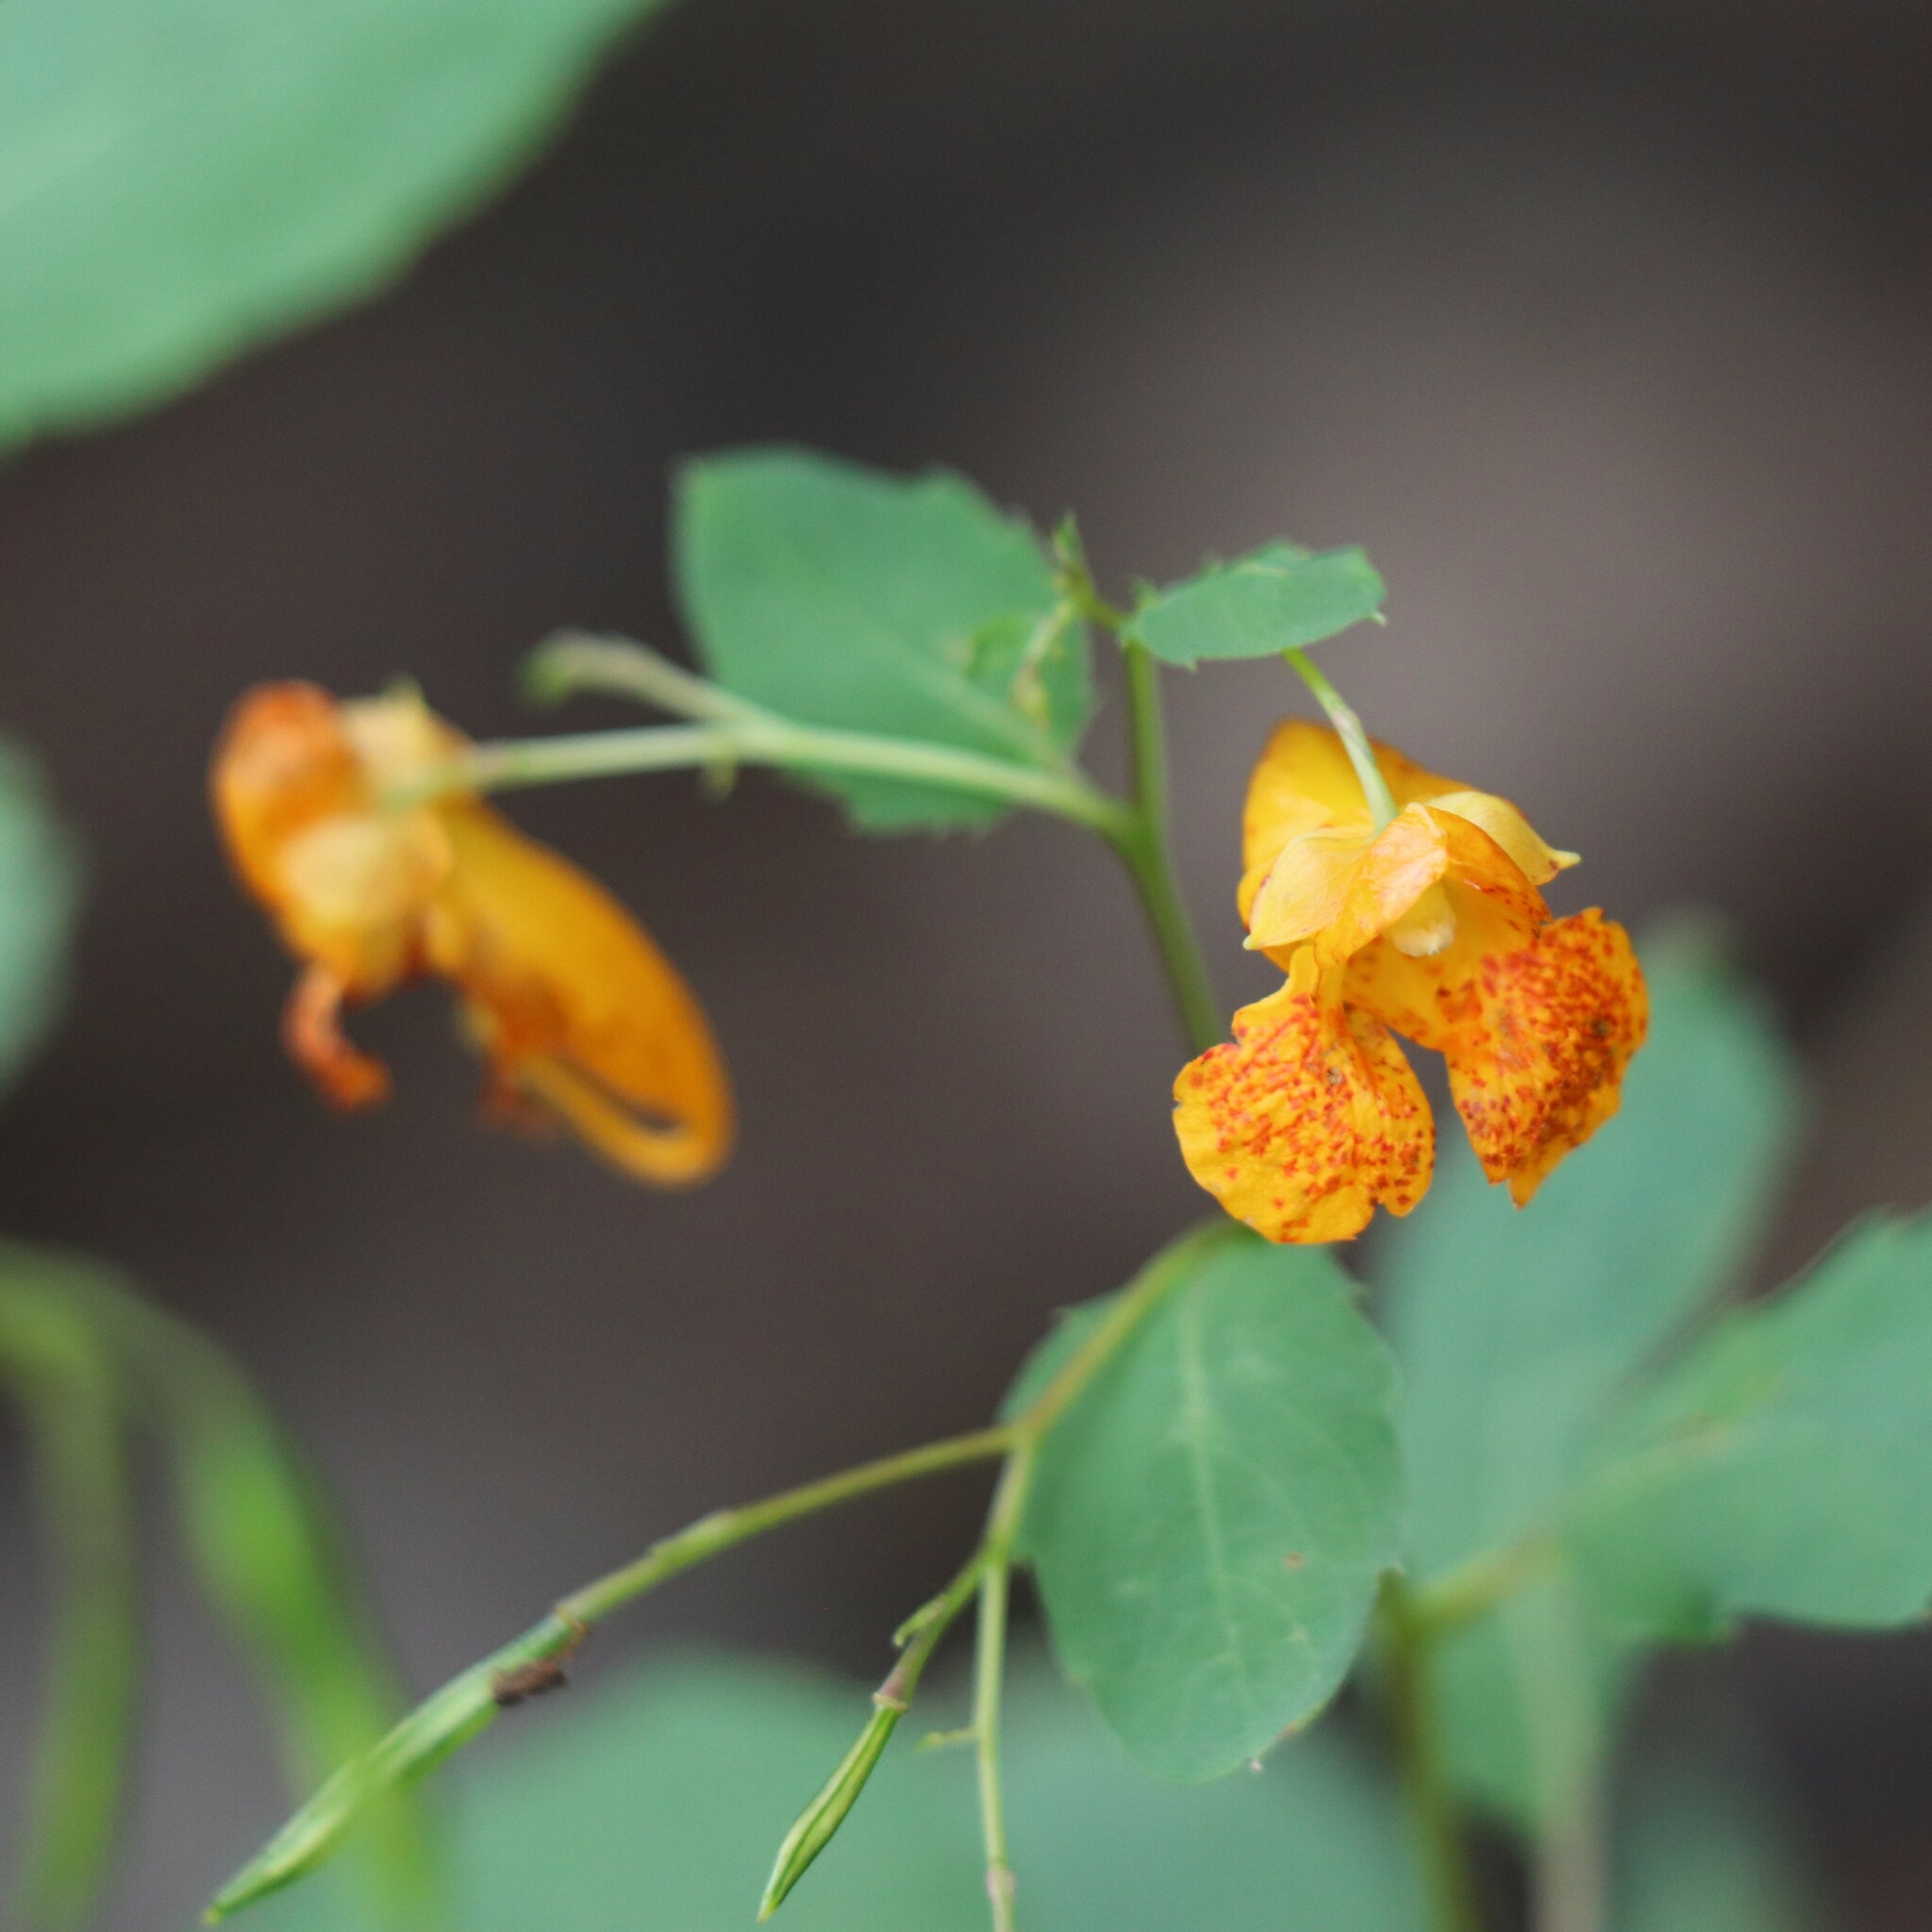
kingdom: Plantae
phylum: Tracheophyta
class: Magnoliopsida
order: Ericales
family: Balsaminaceae
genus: Impatiens
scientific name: Impatiens capensis
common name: Orange balsam
